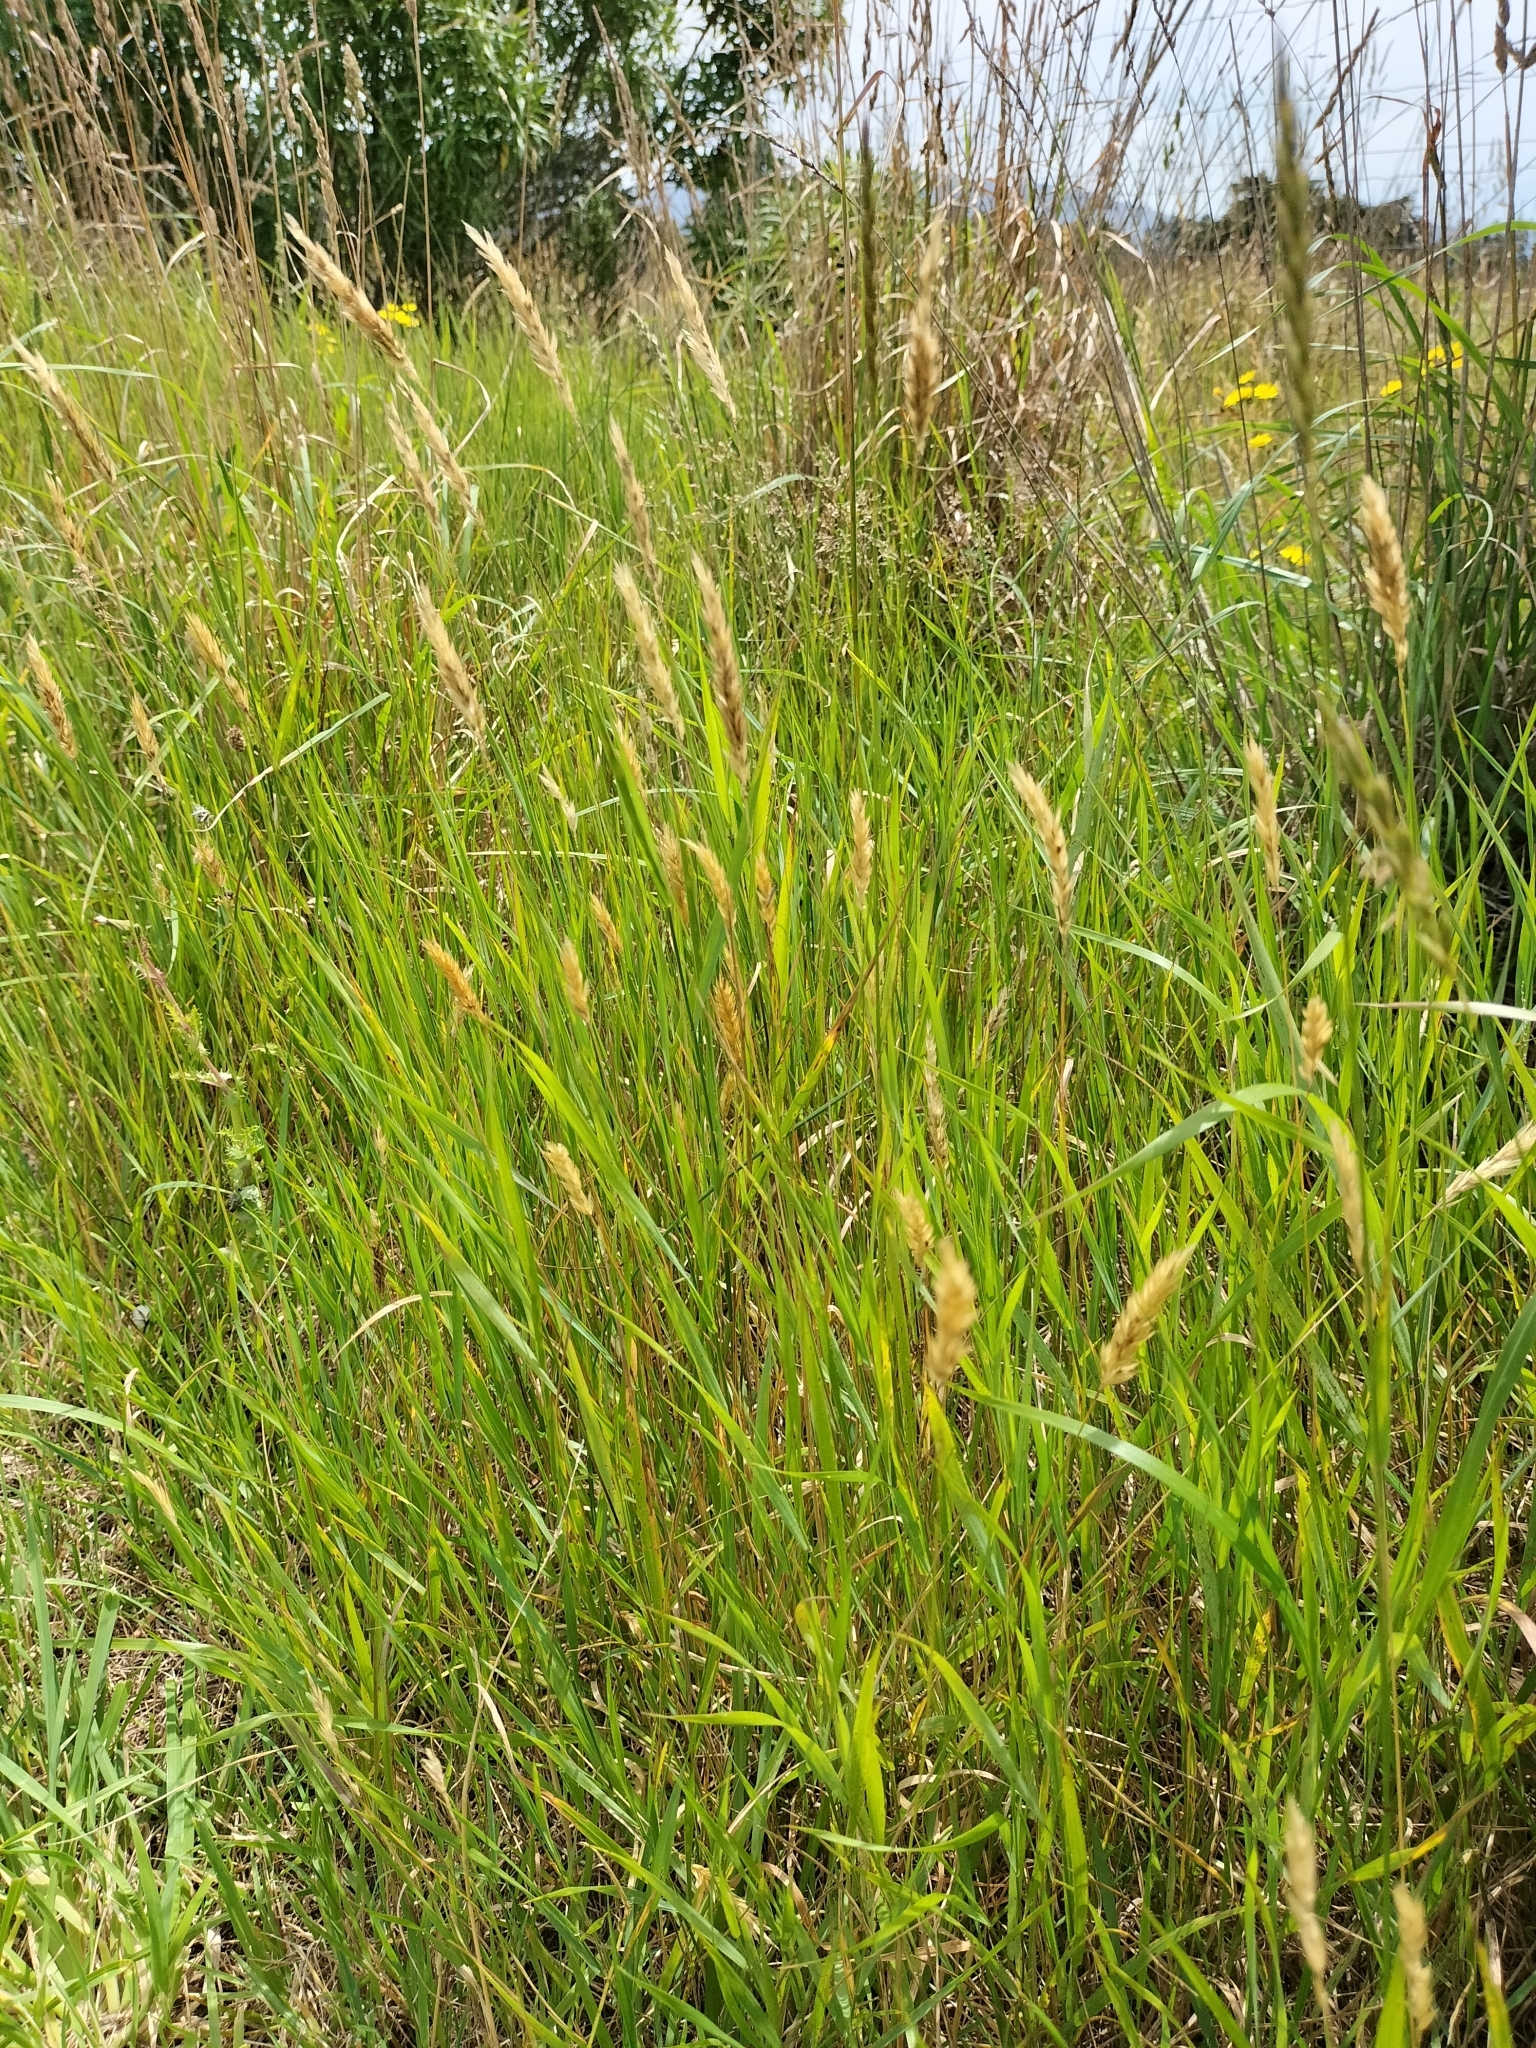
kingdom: Plantae
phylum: Tracheophyta
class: Liliopsida
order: Poales
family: Poaceae
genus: Anthoxanthum
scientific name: Anthoxanthum odoratum
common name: Sweet vernalgrass
